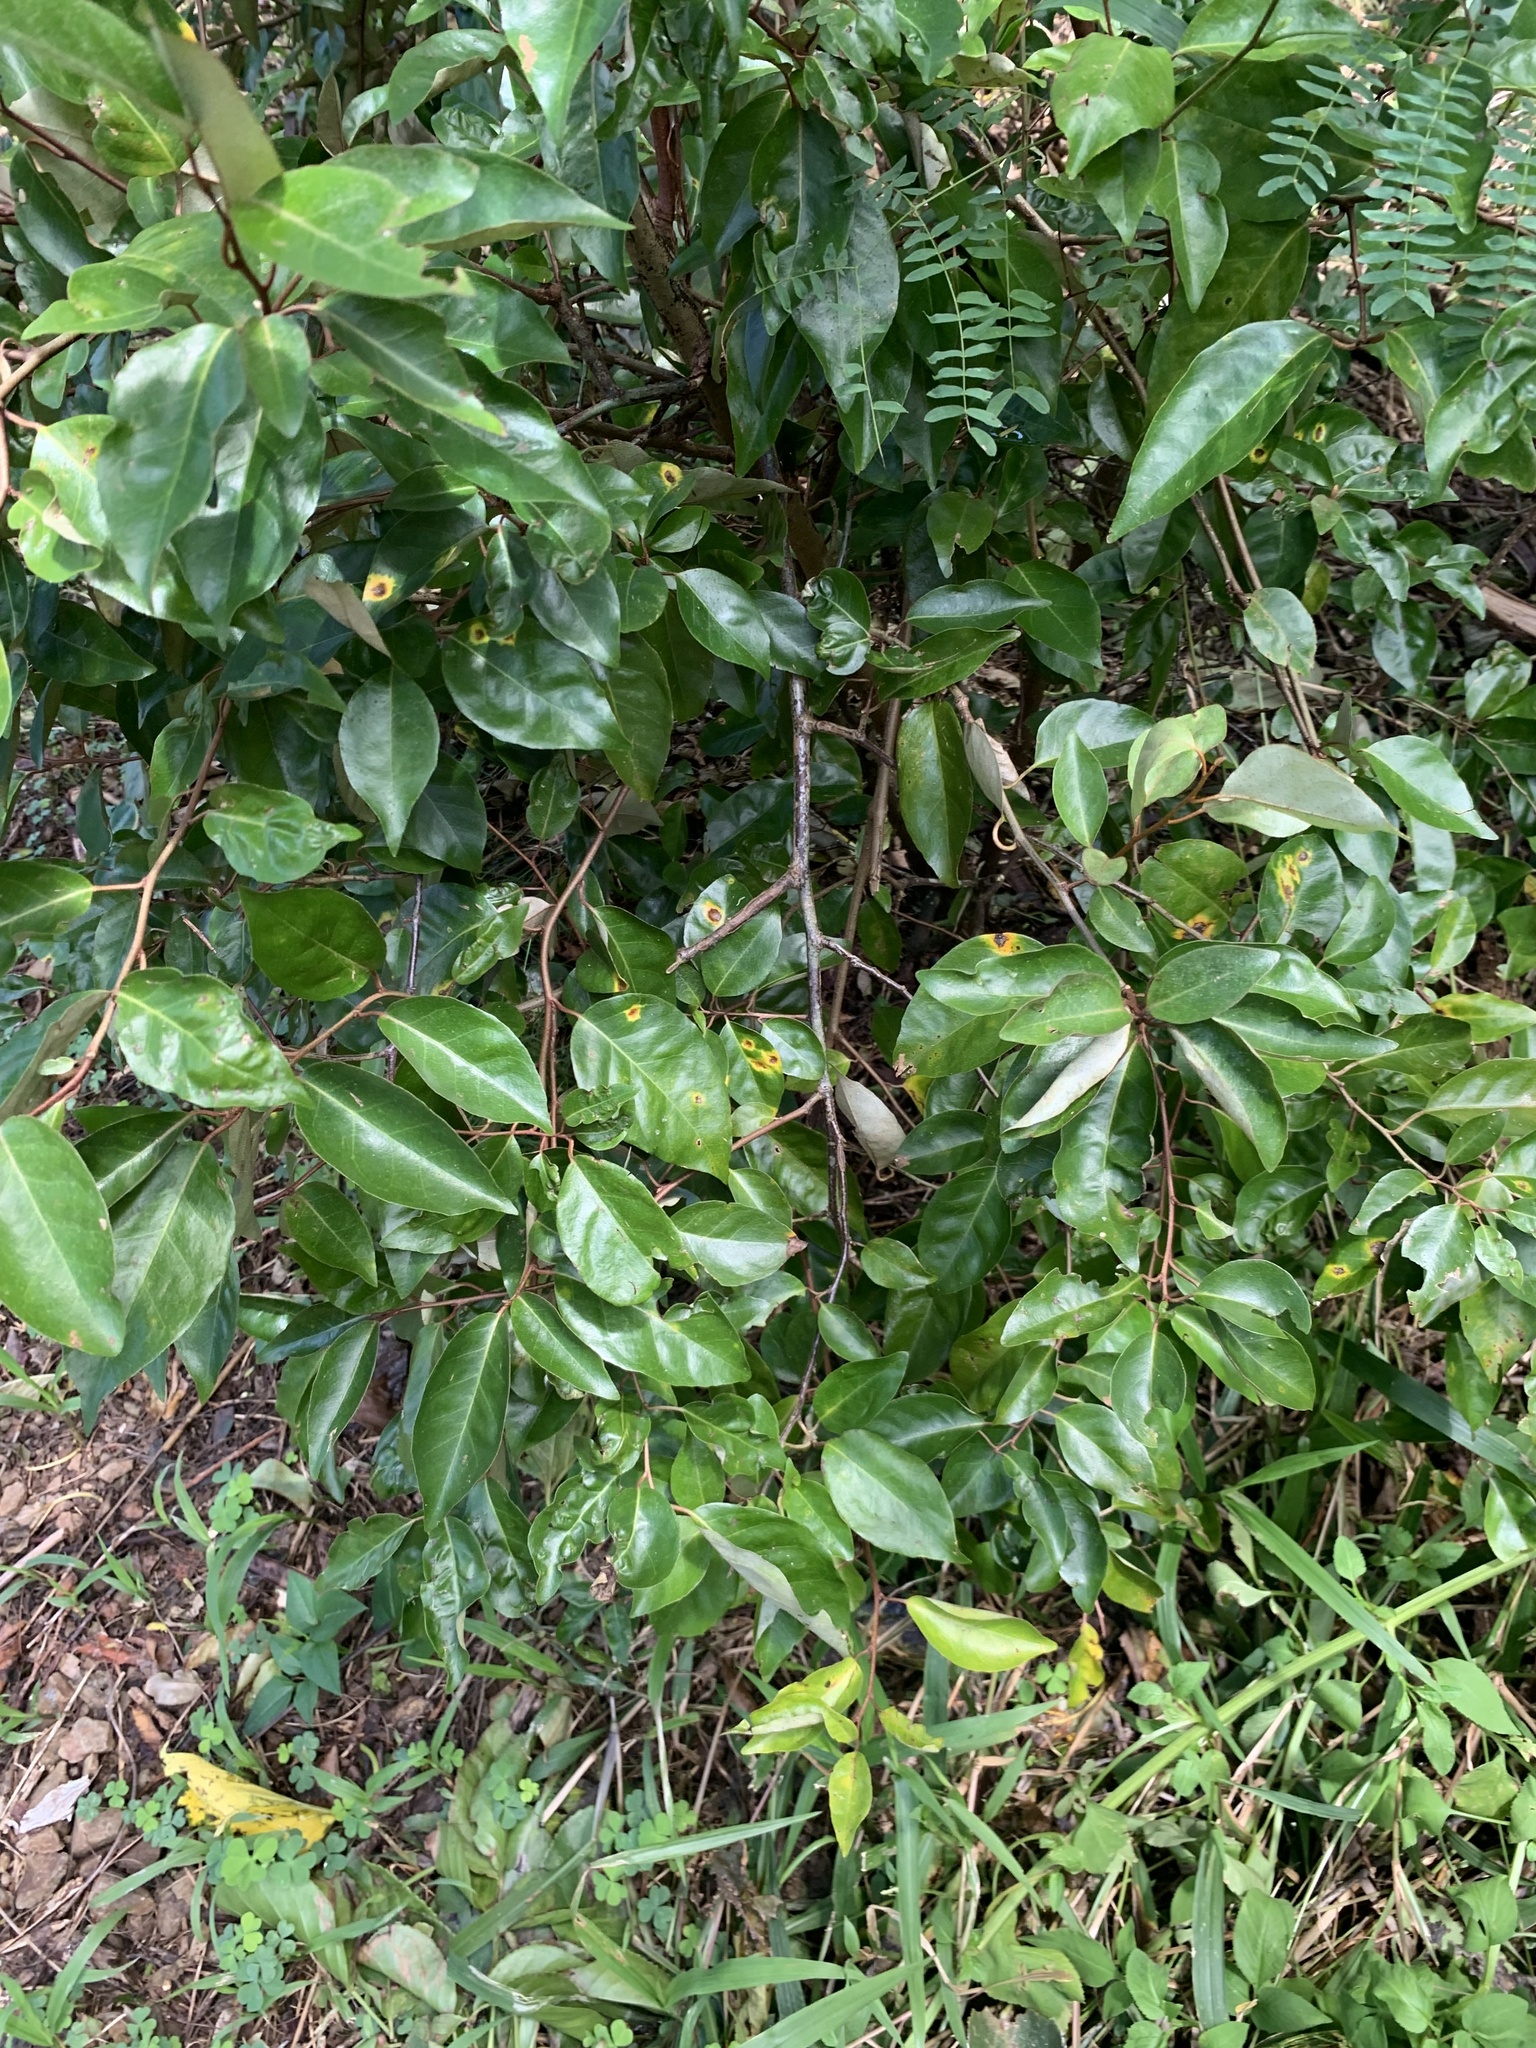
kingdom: Plantae
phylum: Tracheophyta
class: Magnoliopsida
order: Rosales
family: Elaeagnaceae
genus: Elaeagnus
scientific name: Elaeagnus rotundata
